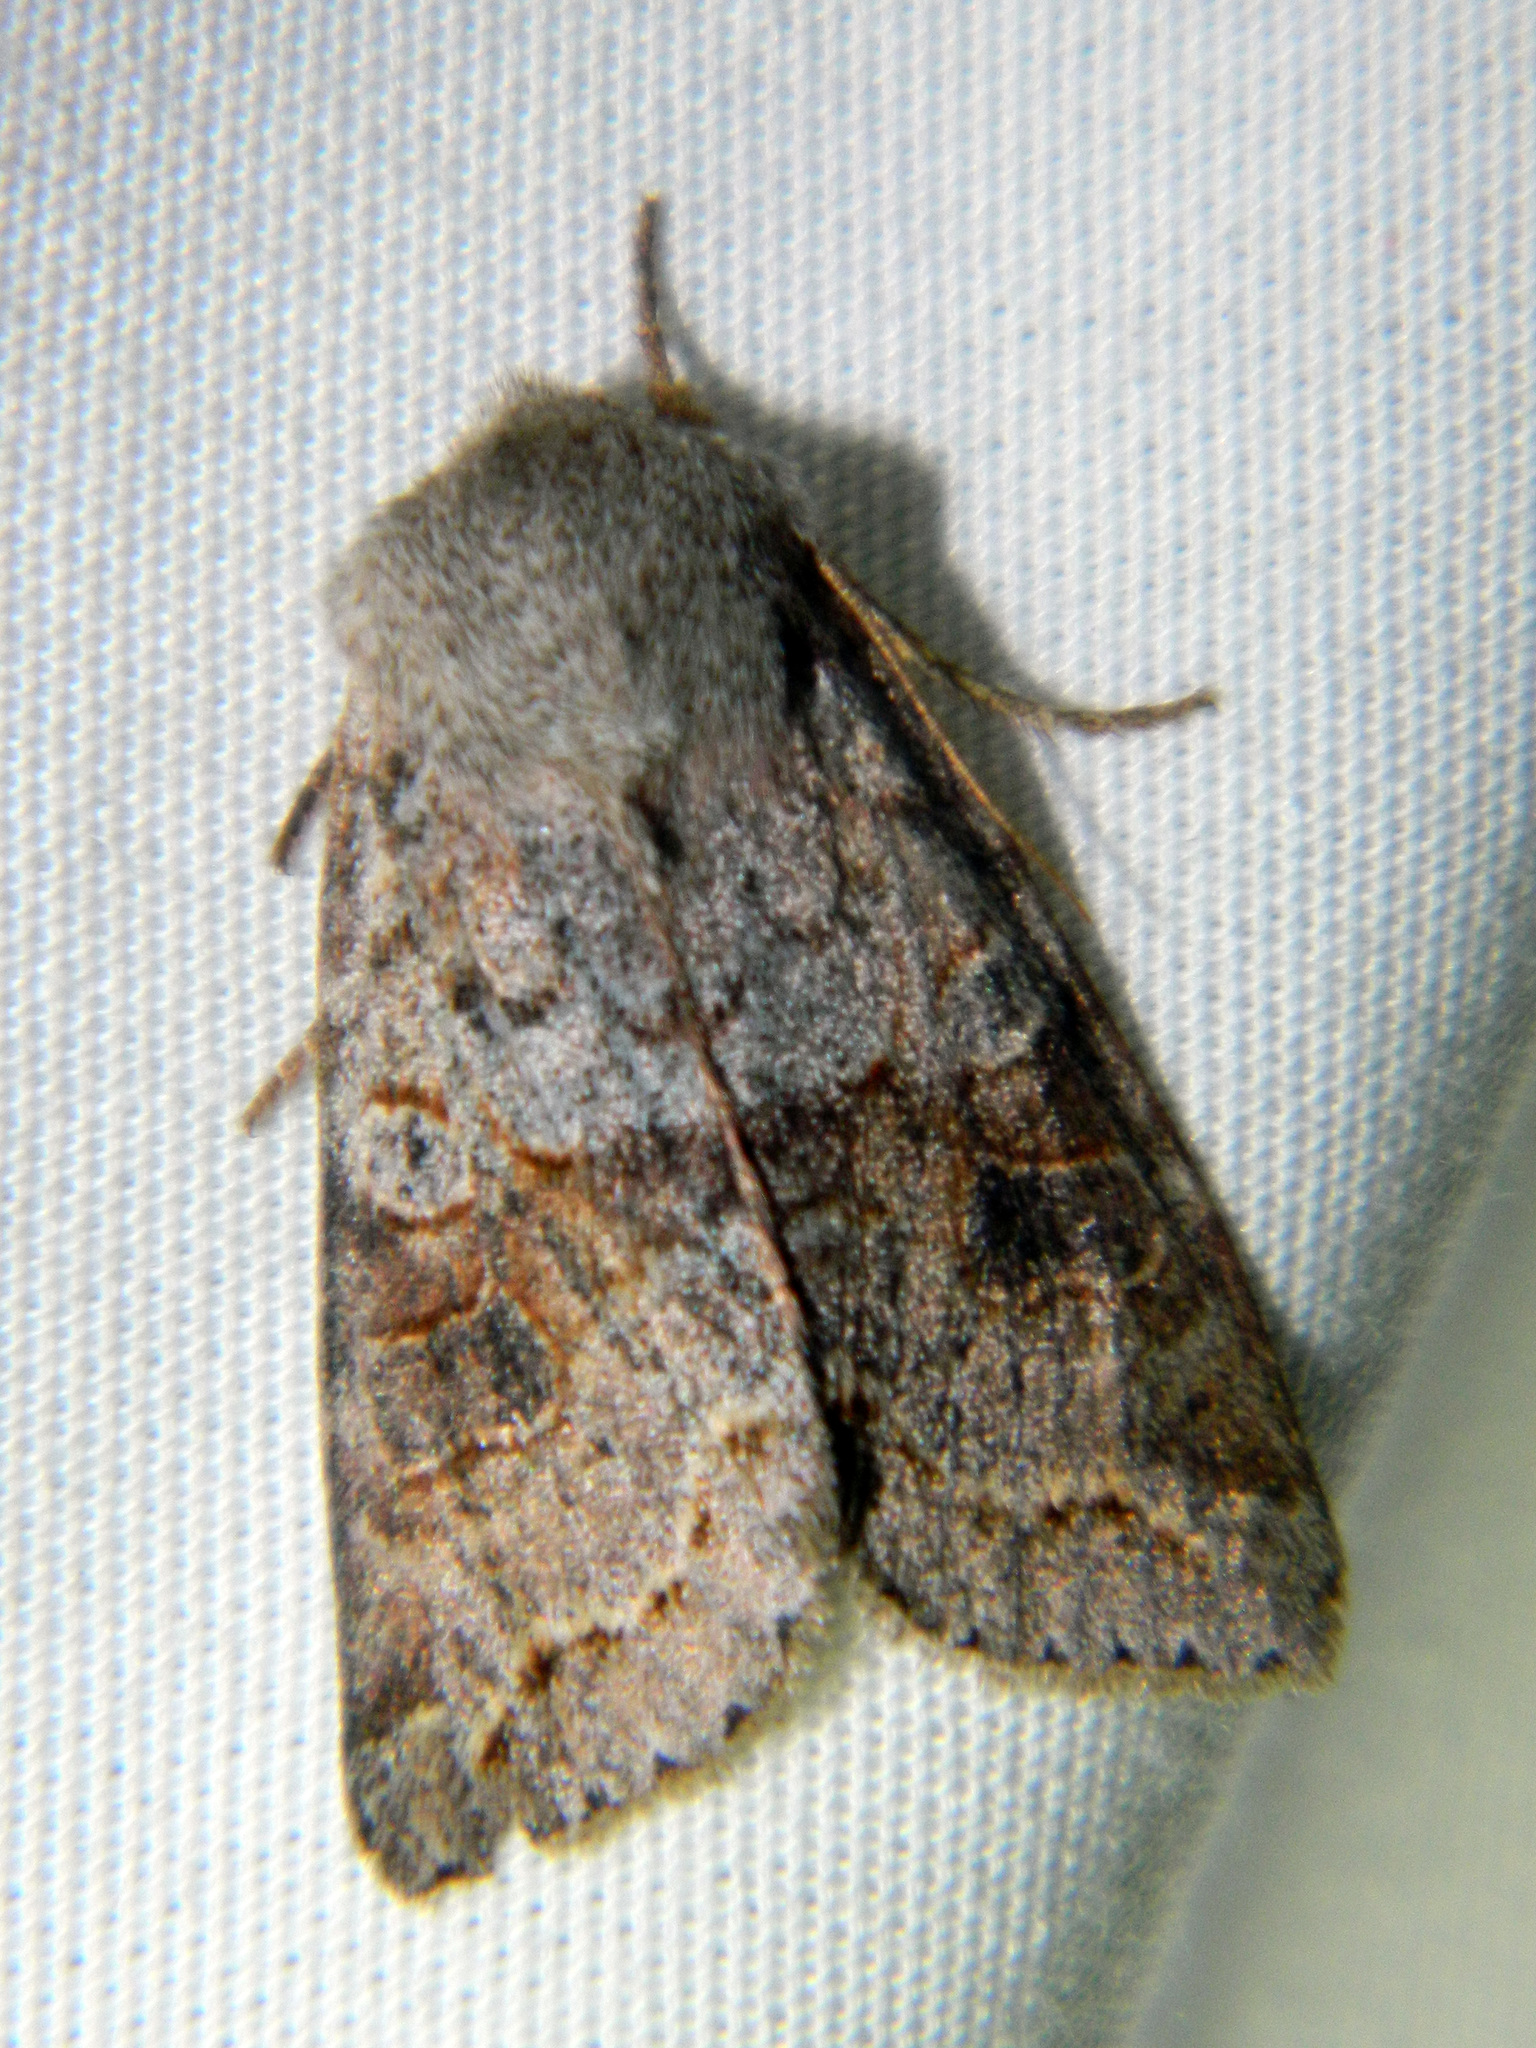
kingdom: Animalia
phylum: Arthropoda
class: Insecta
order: Lepidoptera
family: Noctuidae
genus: Orthosia
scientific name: Orthosia revicta
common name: Rusty whitesided caterpillar
